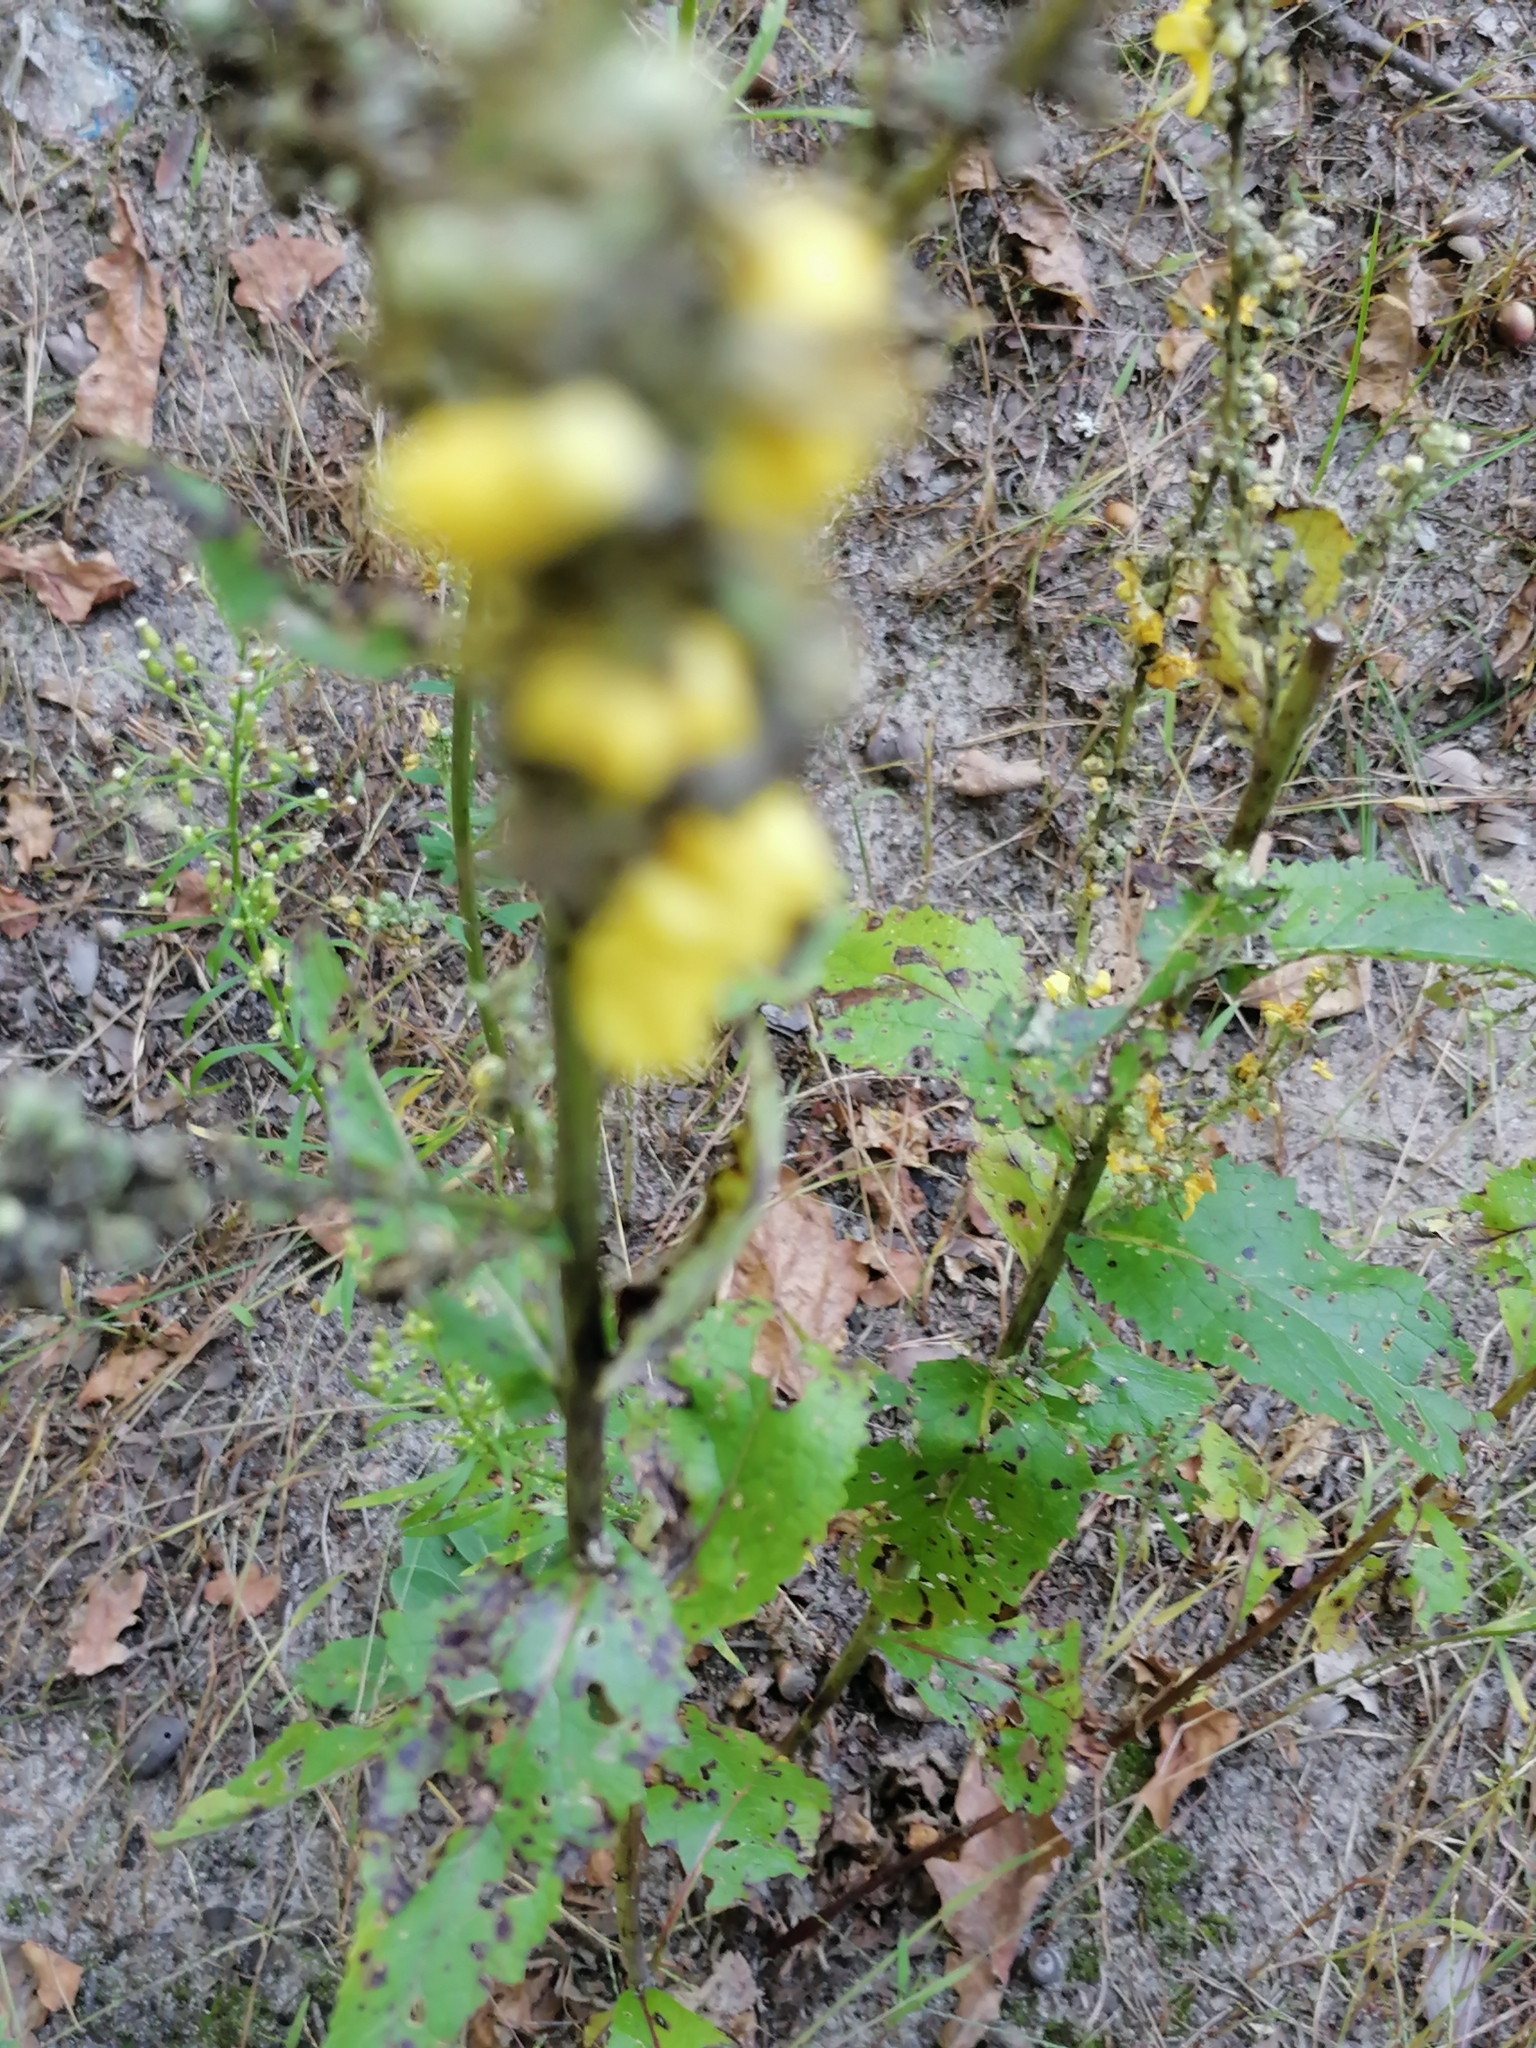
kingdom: Plantae
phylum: Tracheophyta
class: Magnoliopsida
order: Lamiales
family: Scrophulariaceae
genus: Verbascum
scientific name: Verbascum lychnitis
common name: White mullein
